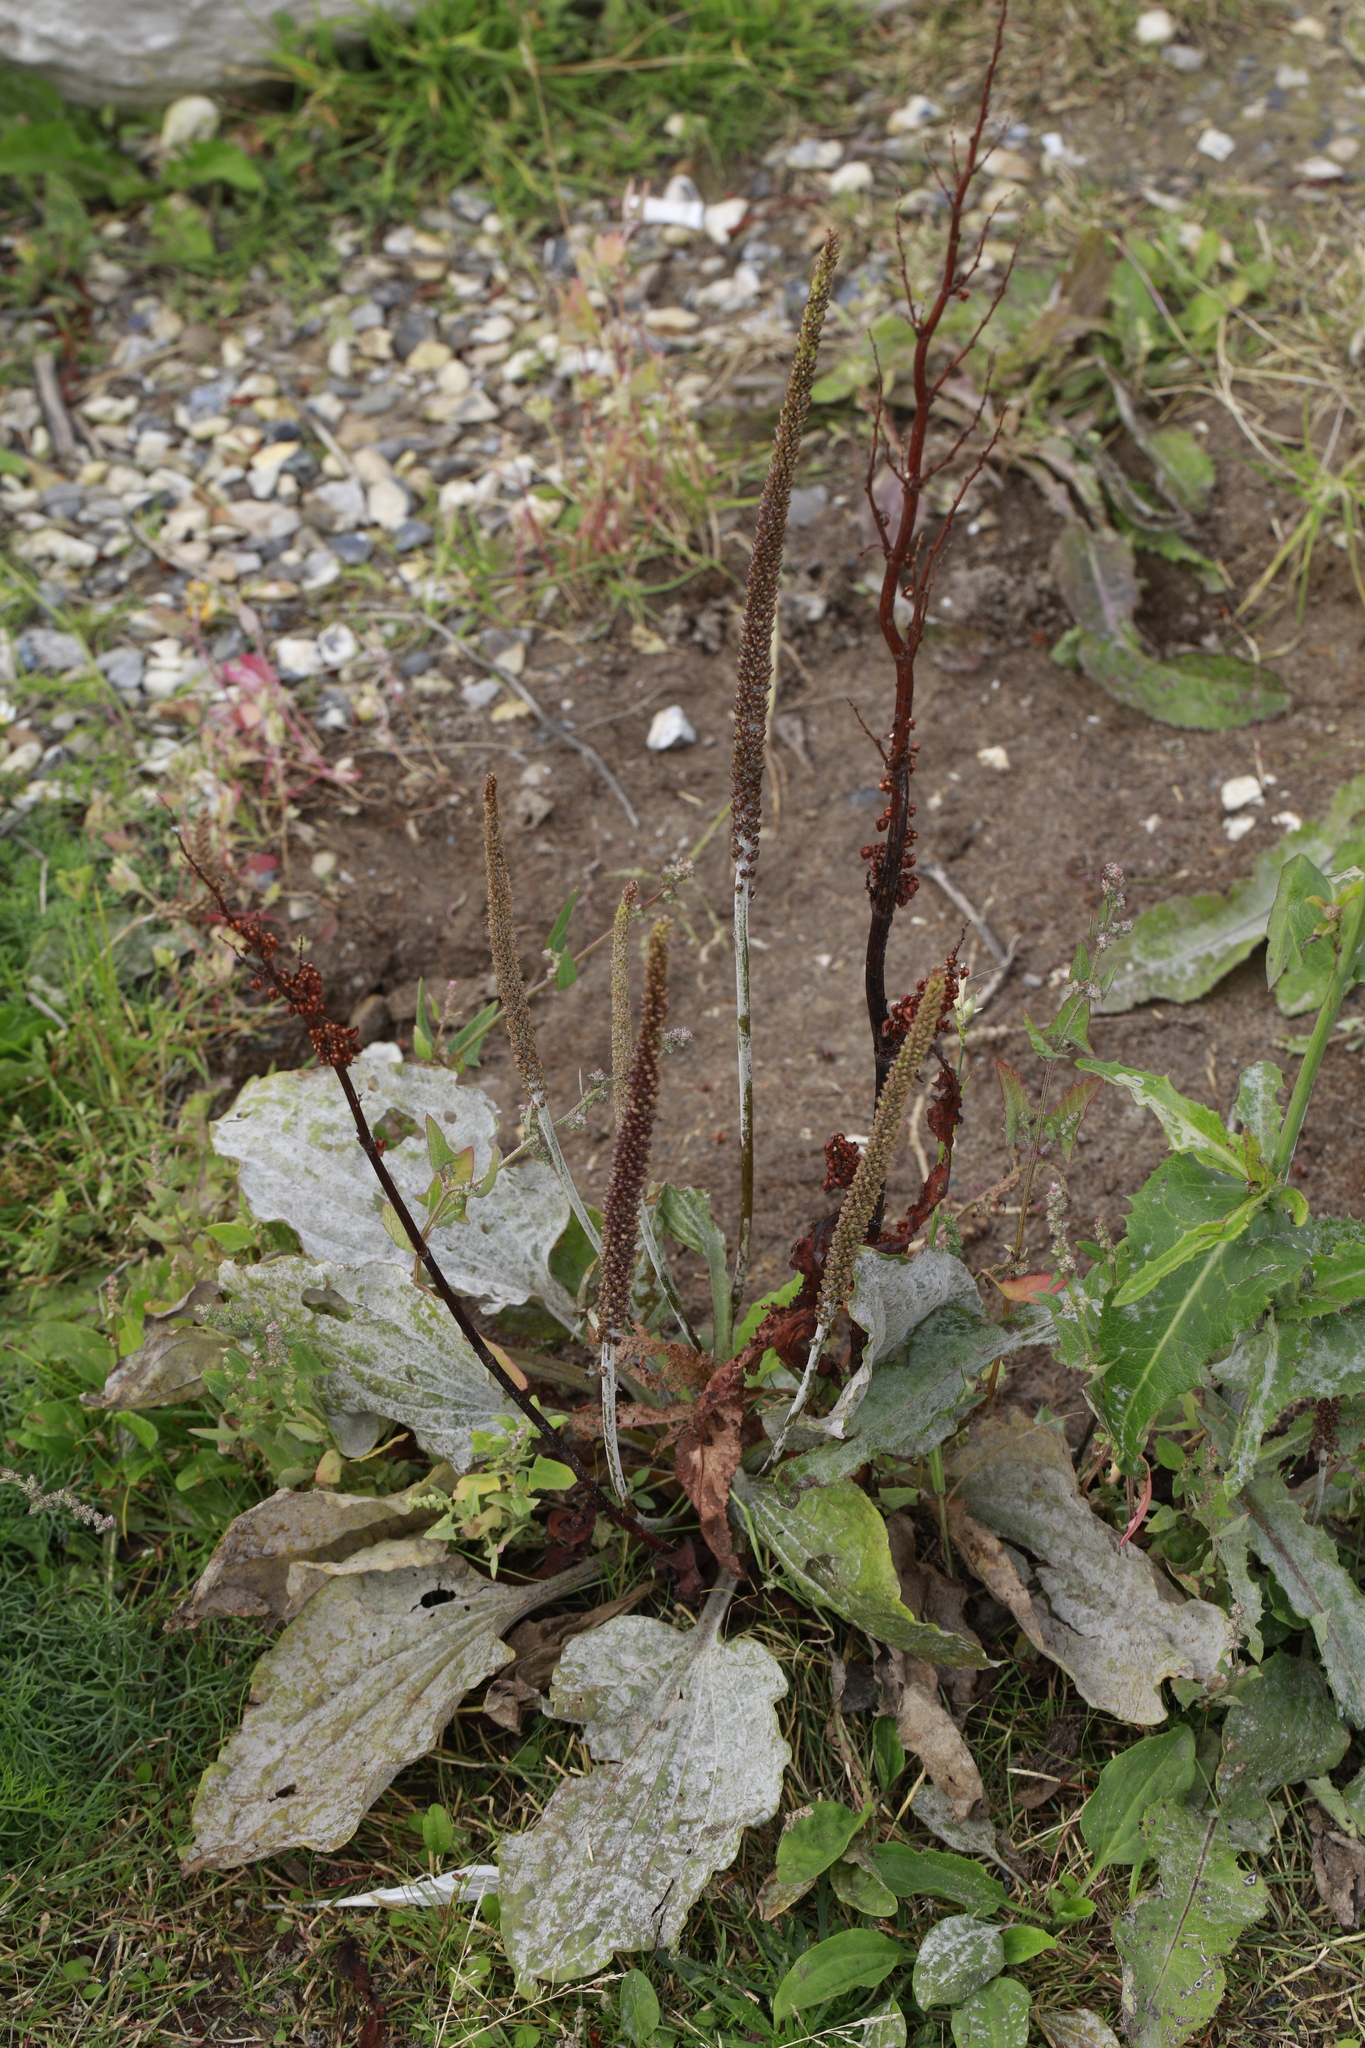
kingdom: Plantae
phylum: Tracheophyta
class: Magnoliopsida
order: Lamiales
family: Plantaginaceae
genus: Plantago
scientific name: Plantago major
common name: Common plantain
